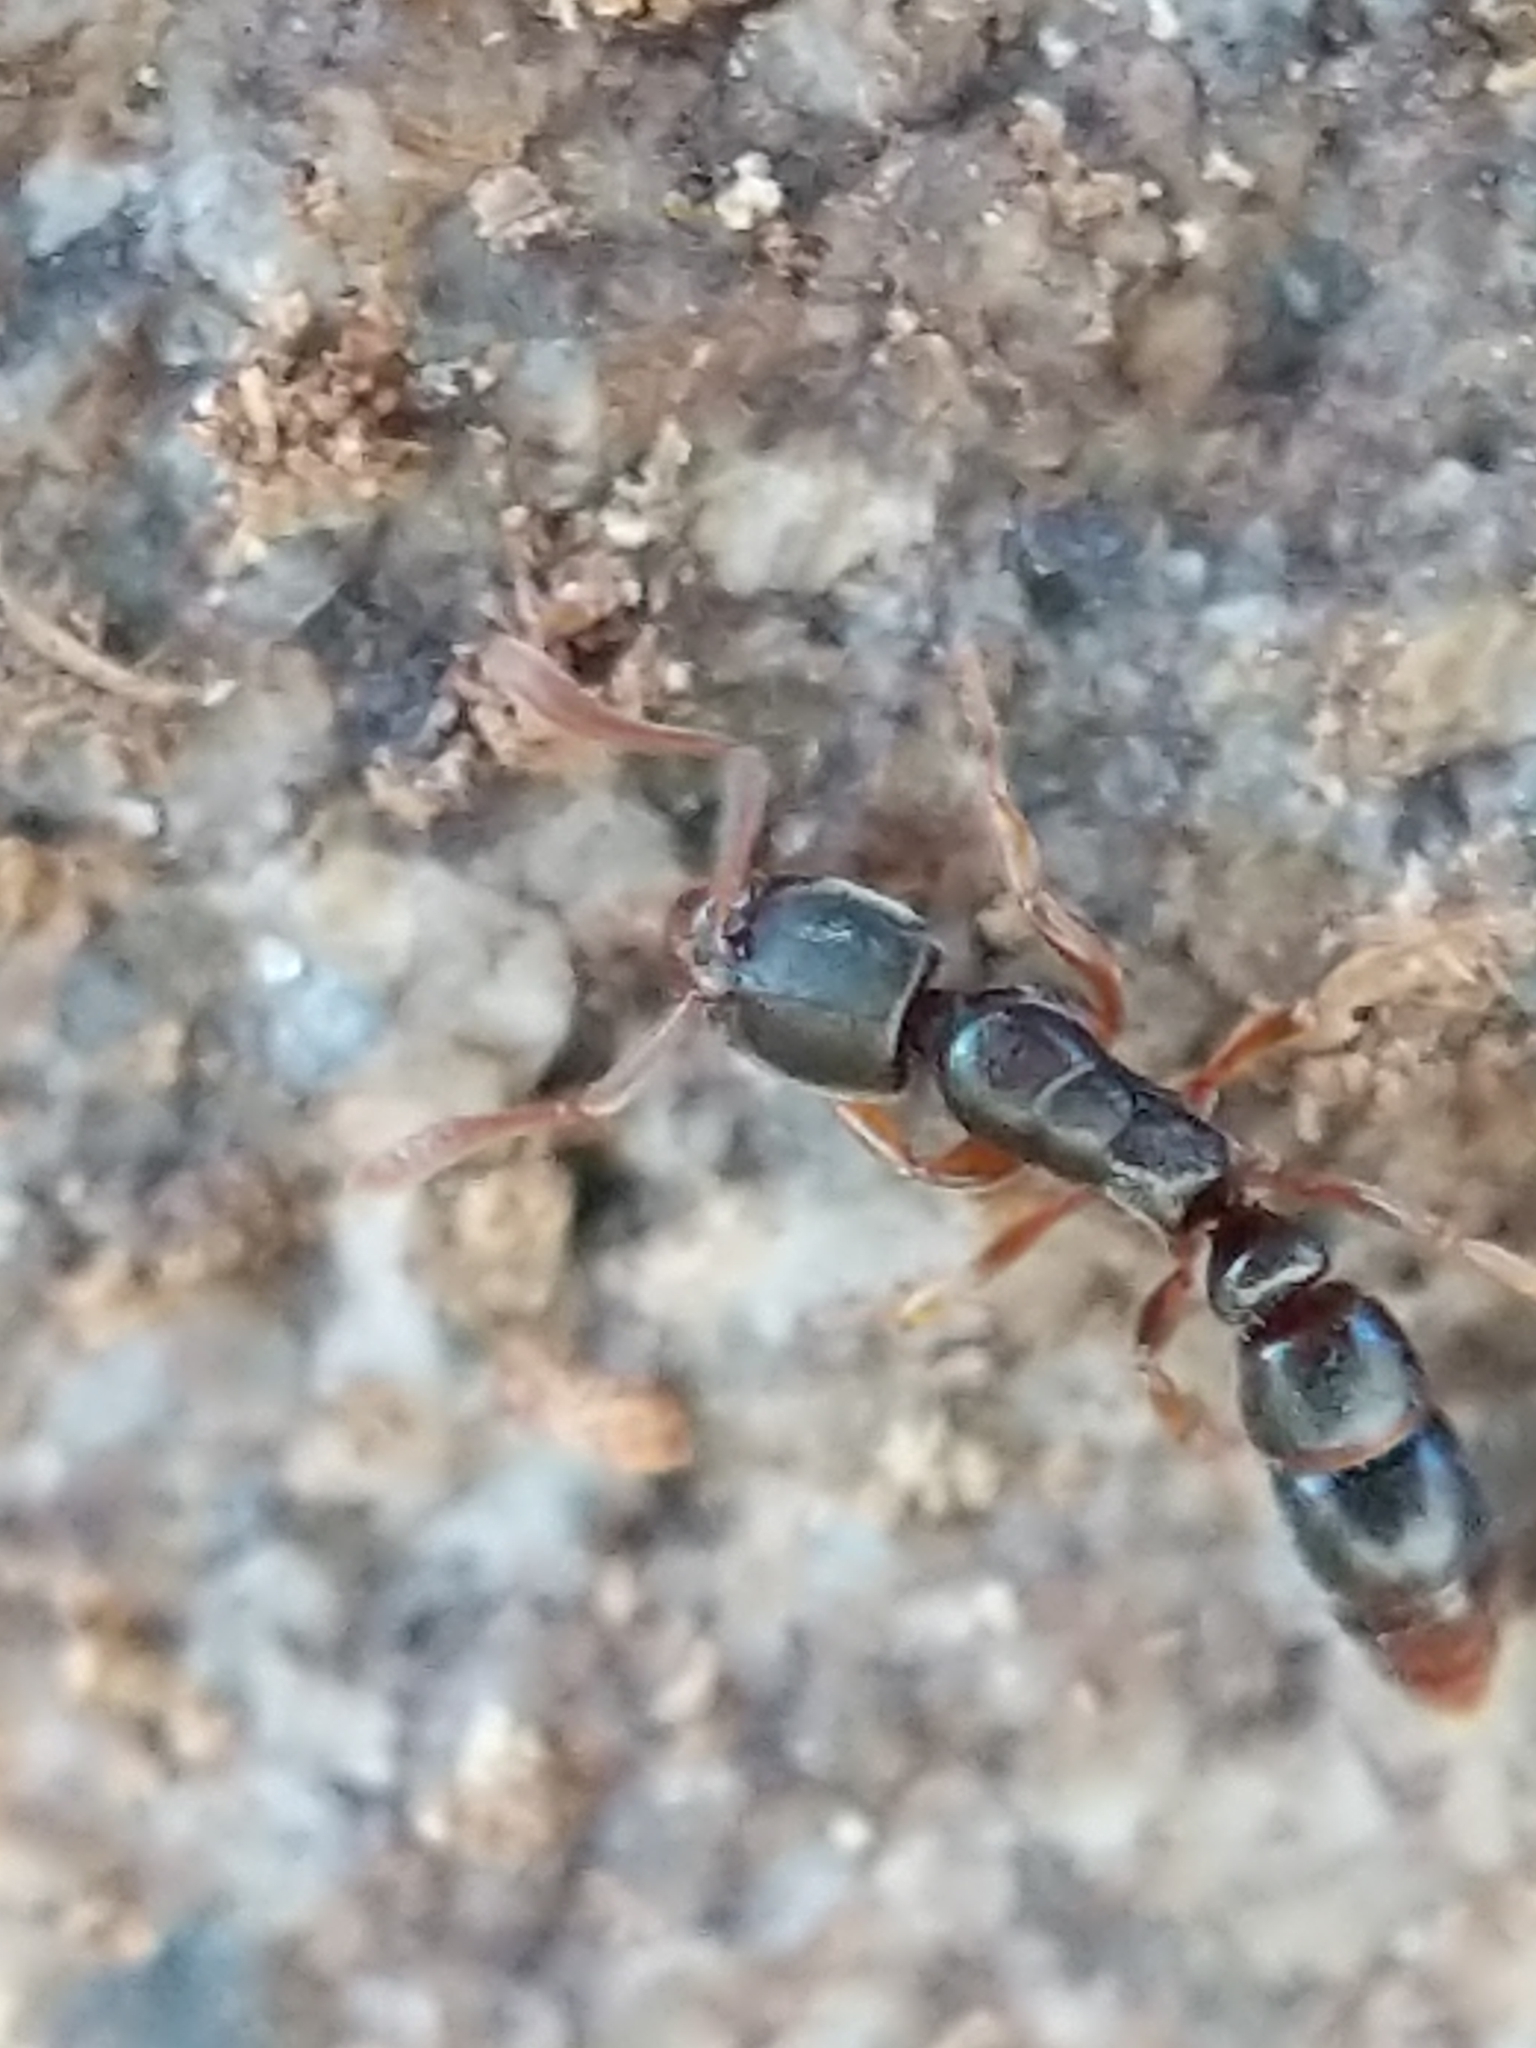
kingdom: Animalia
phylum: Arthropoda
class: Insecta
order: Hymenoptera
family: Formicidae
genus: Ponera
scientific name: Ponera pennsylvanica
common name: Pennsylvania ponera
